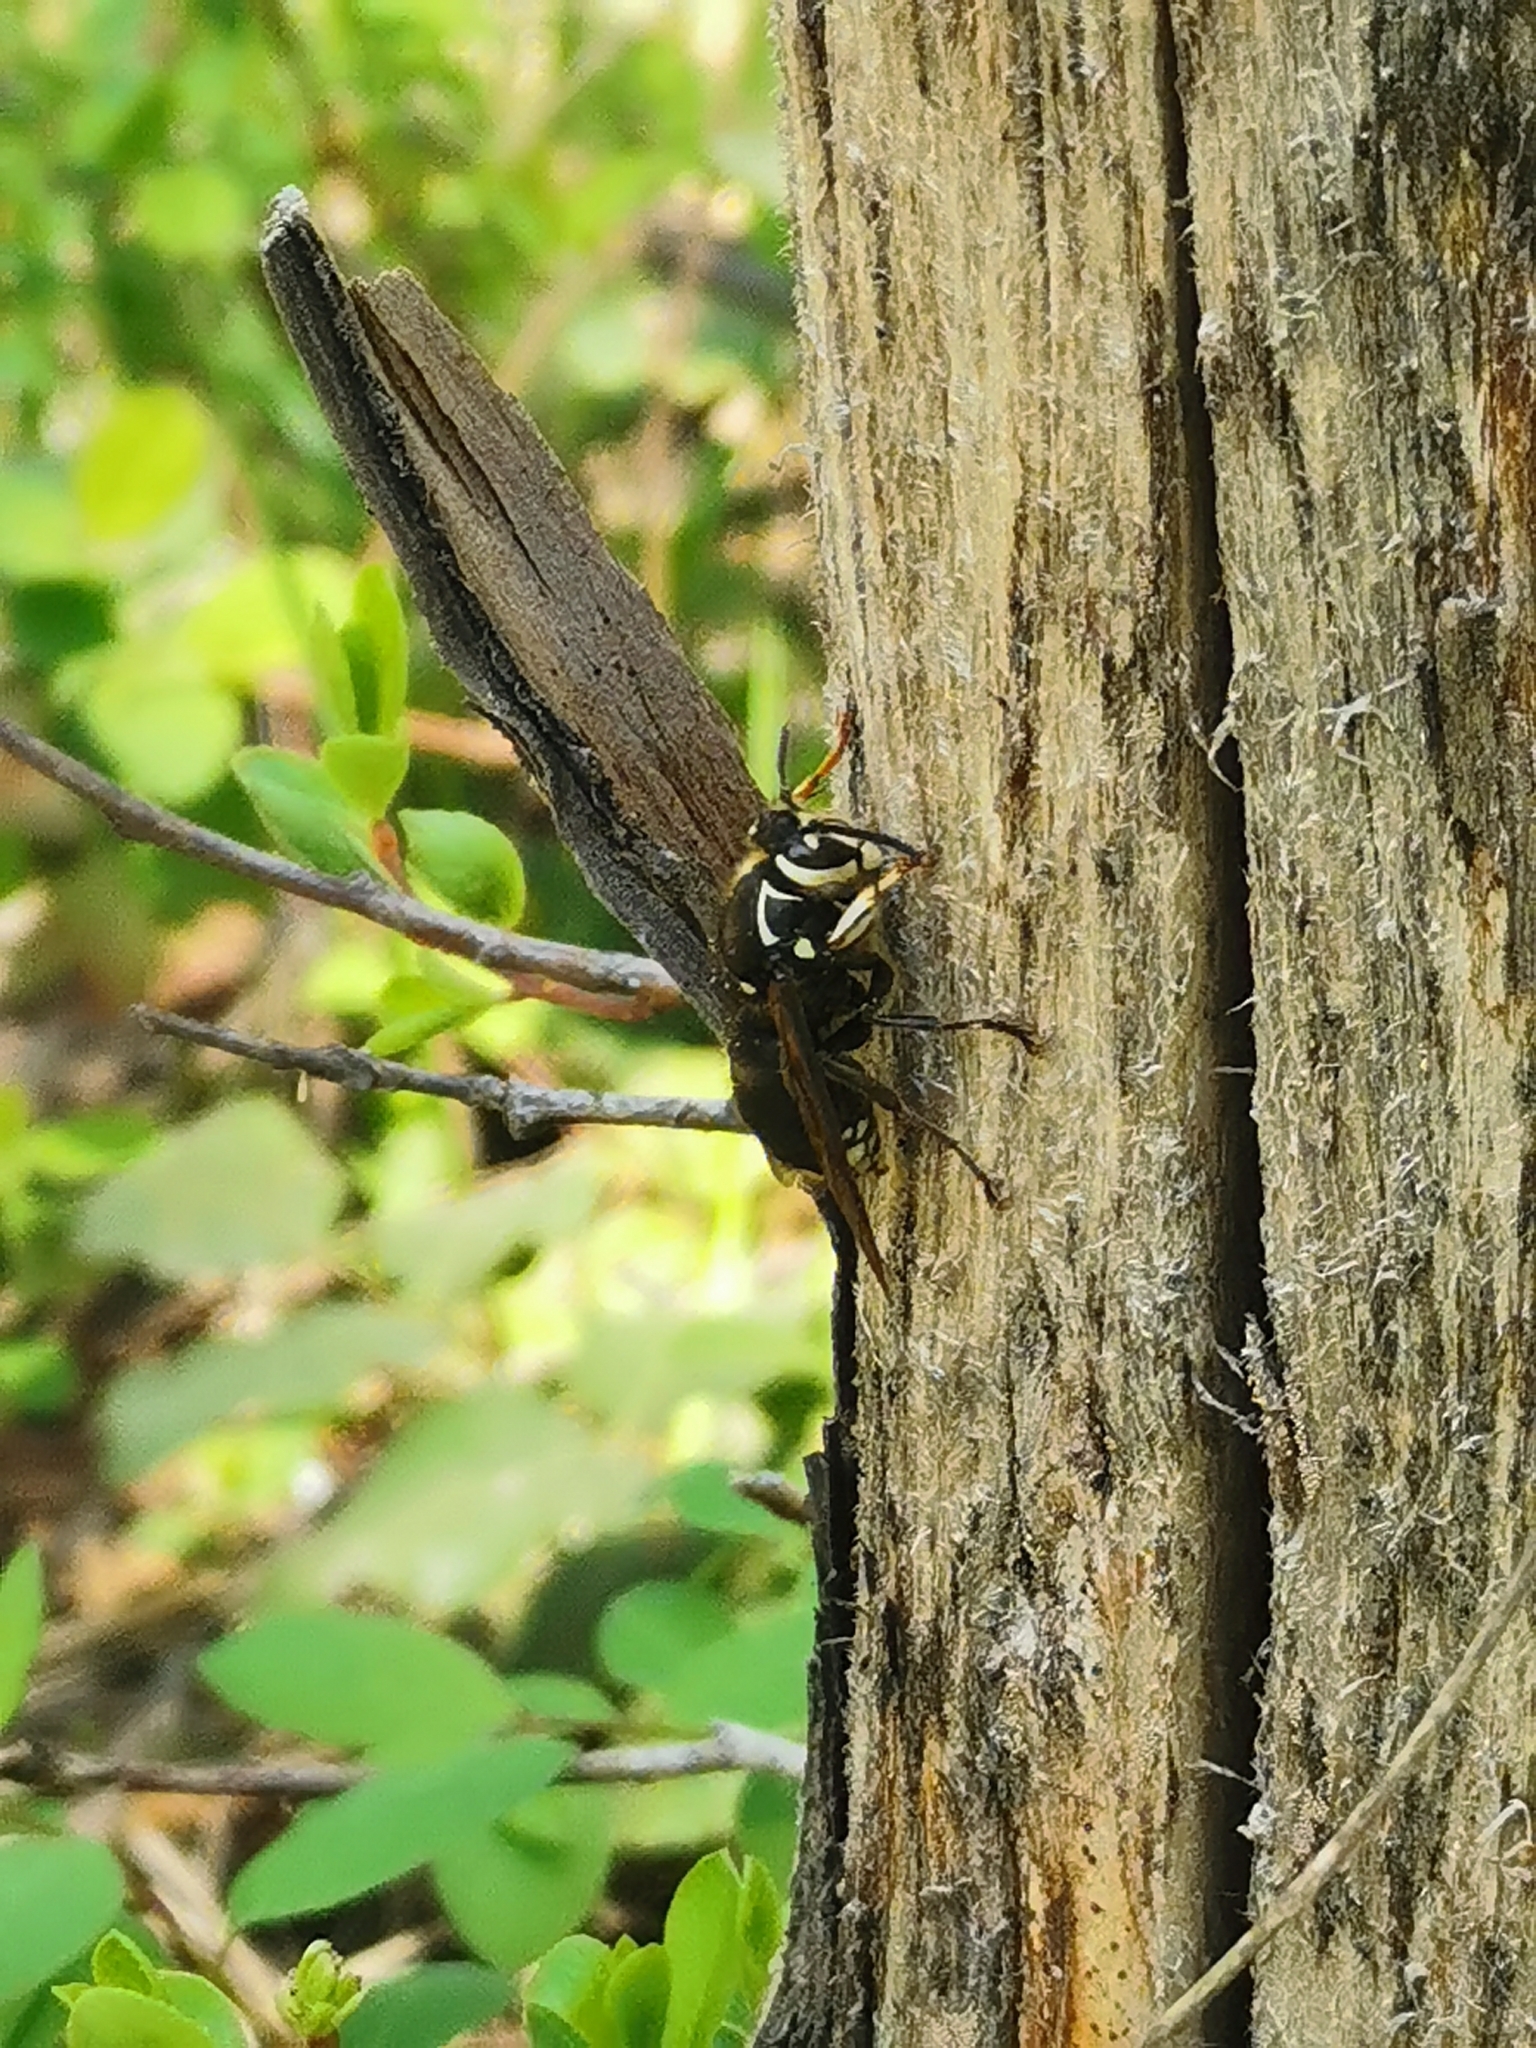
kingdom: Animalia
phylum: Arthropoda
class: Insecta
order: Hymenoptera
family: Vespidae
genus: Dolichovespula
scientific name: Dolichovespula maculata
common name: Bald-faced hornet
